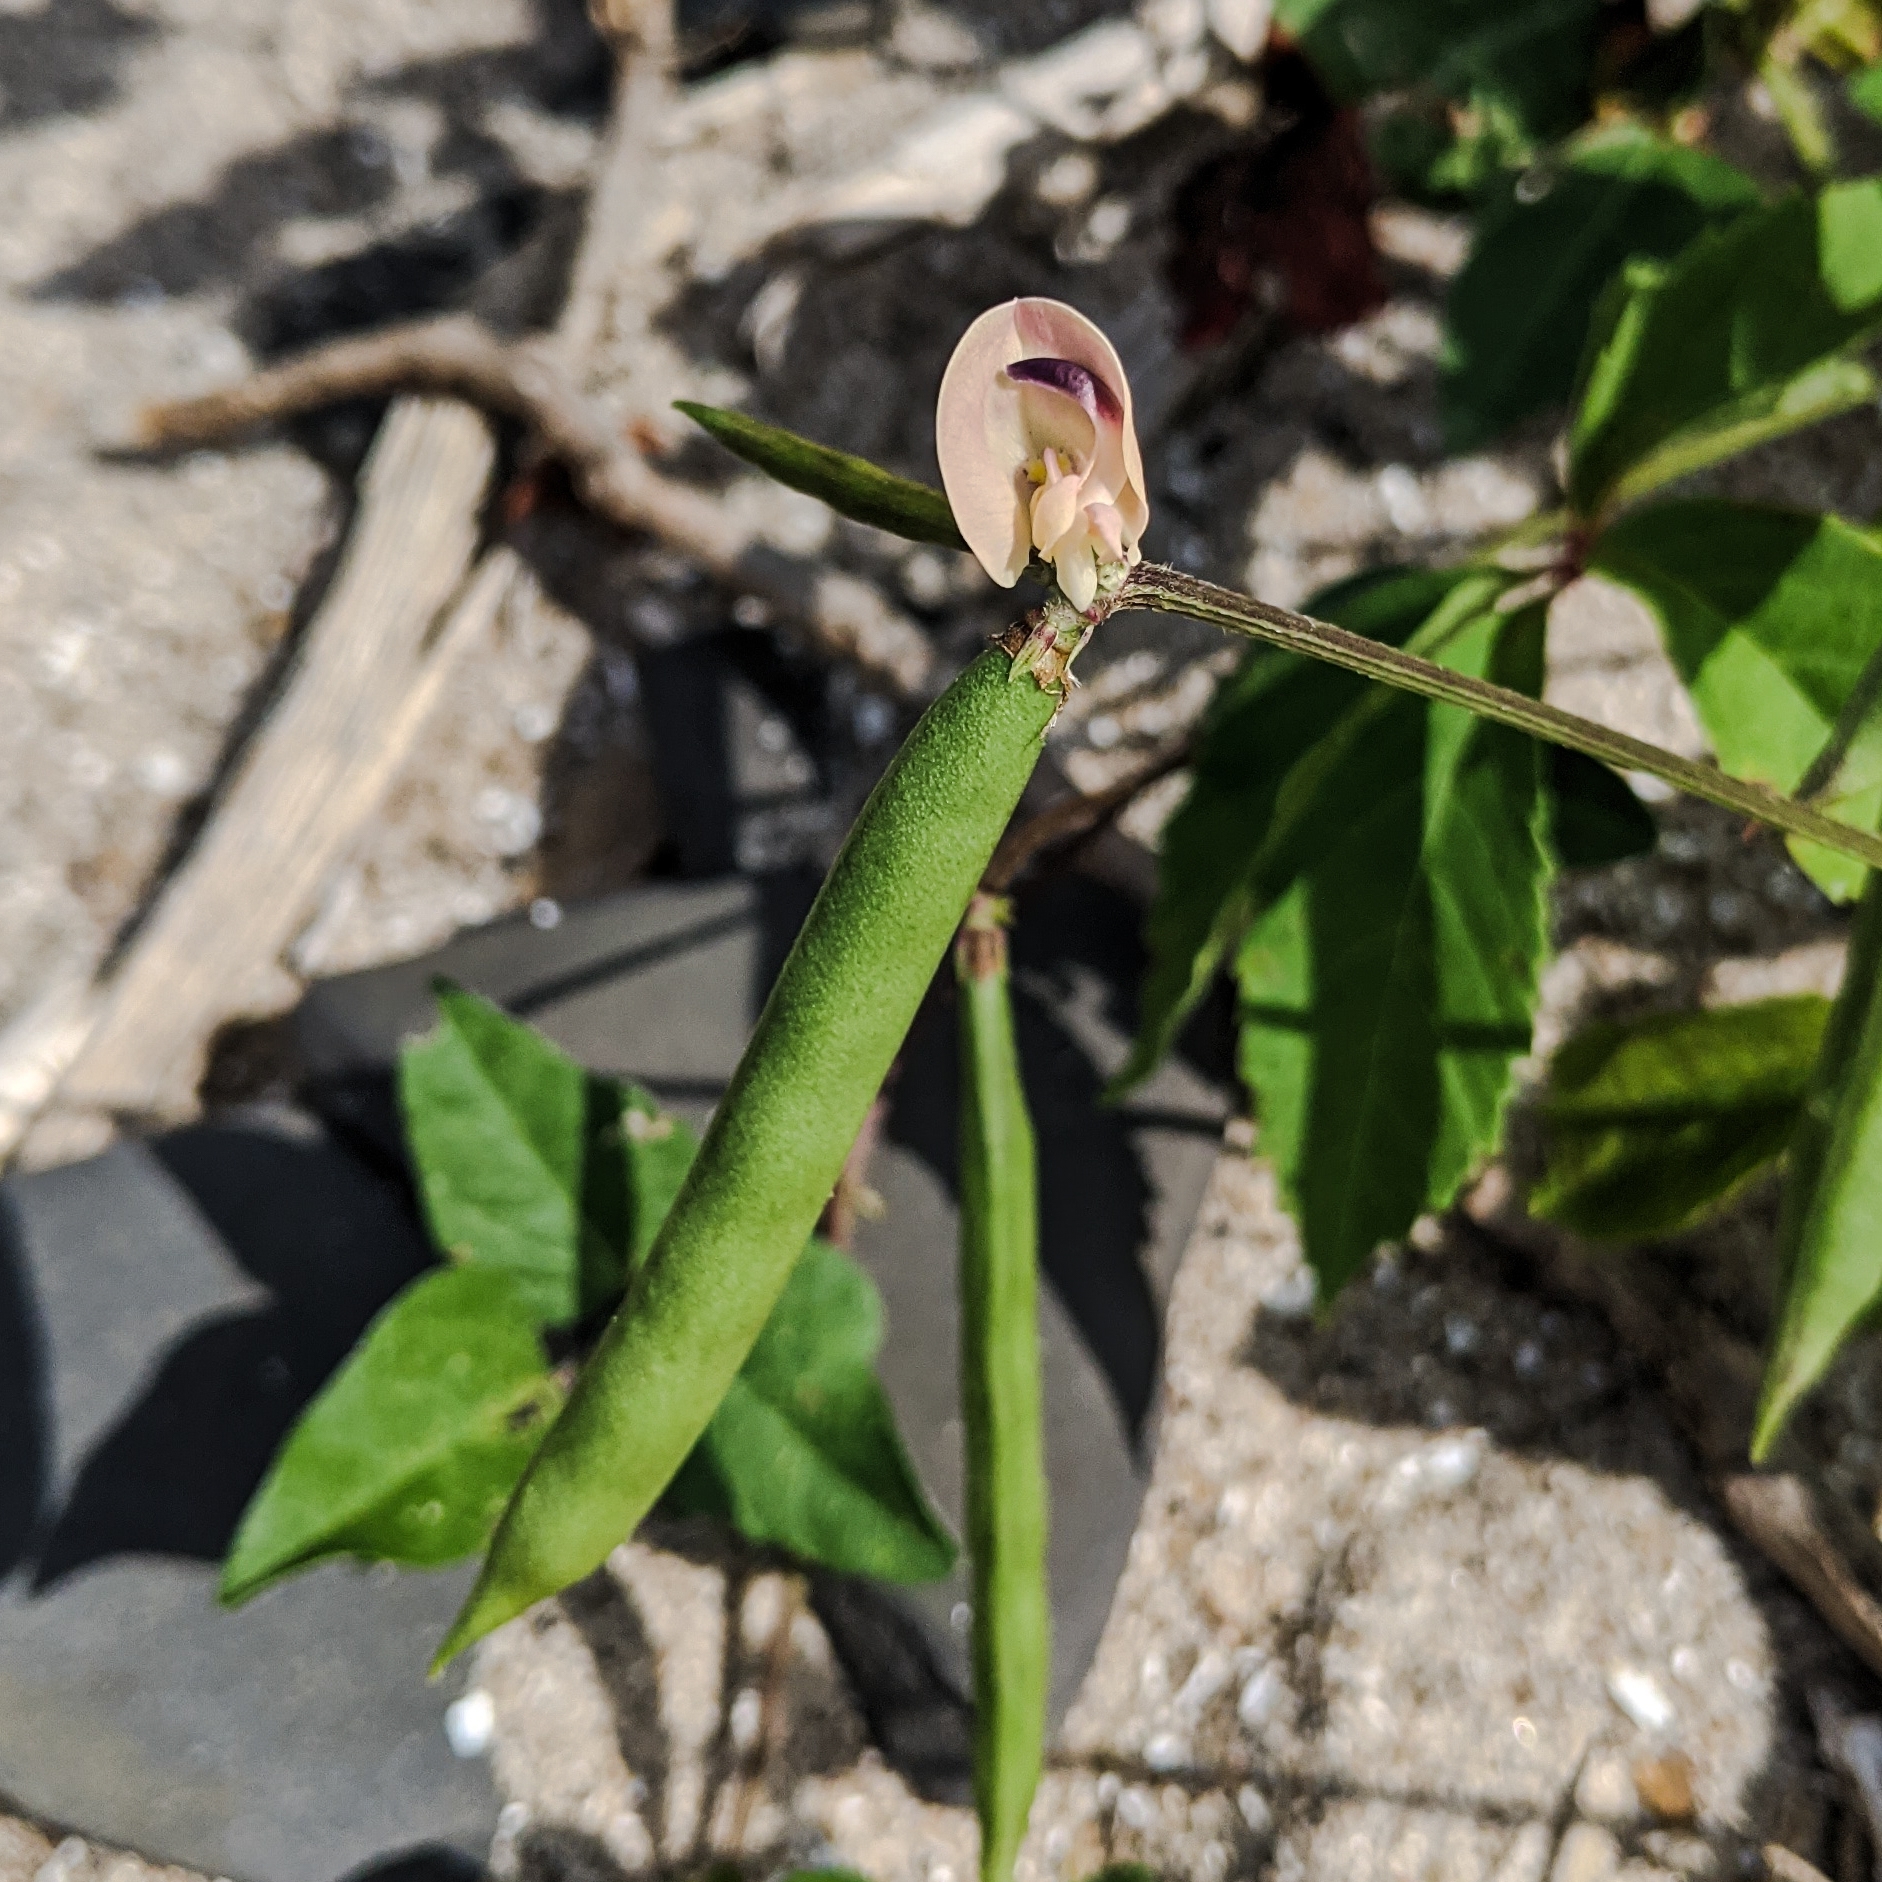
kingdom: Plantae
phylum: Tracheophyta
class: Magnoliopsida
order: Fabales
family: Fabaceae
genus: Strophostyles
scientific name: Strophostyles helvola
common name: Trailing wild bean
